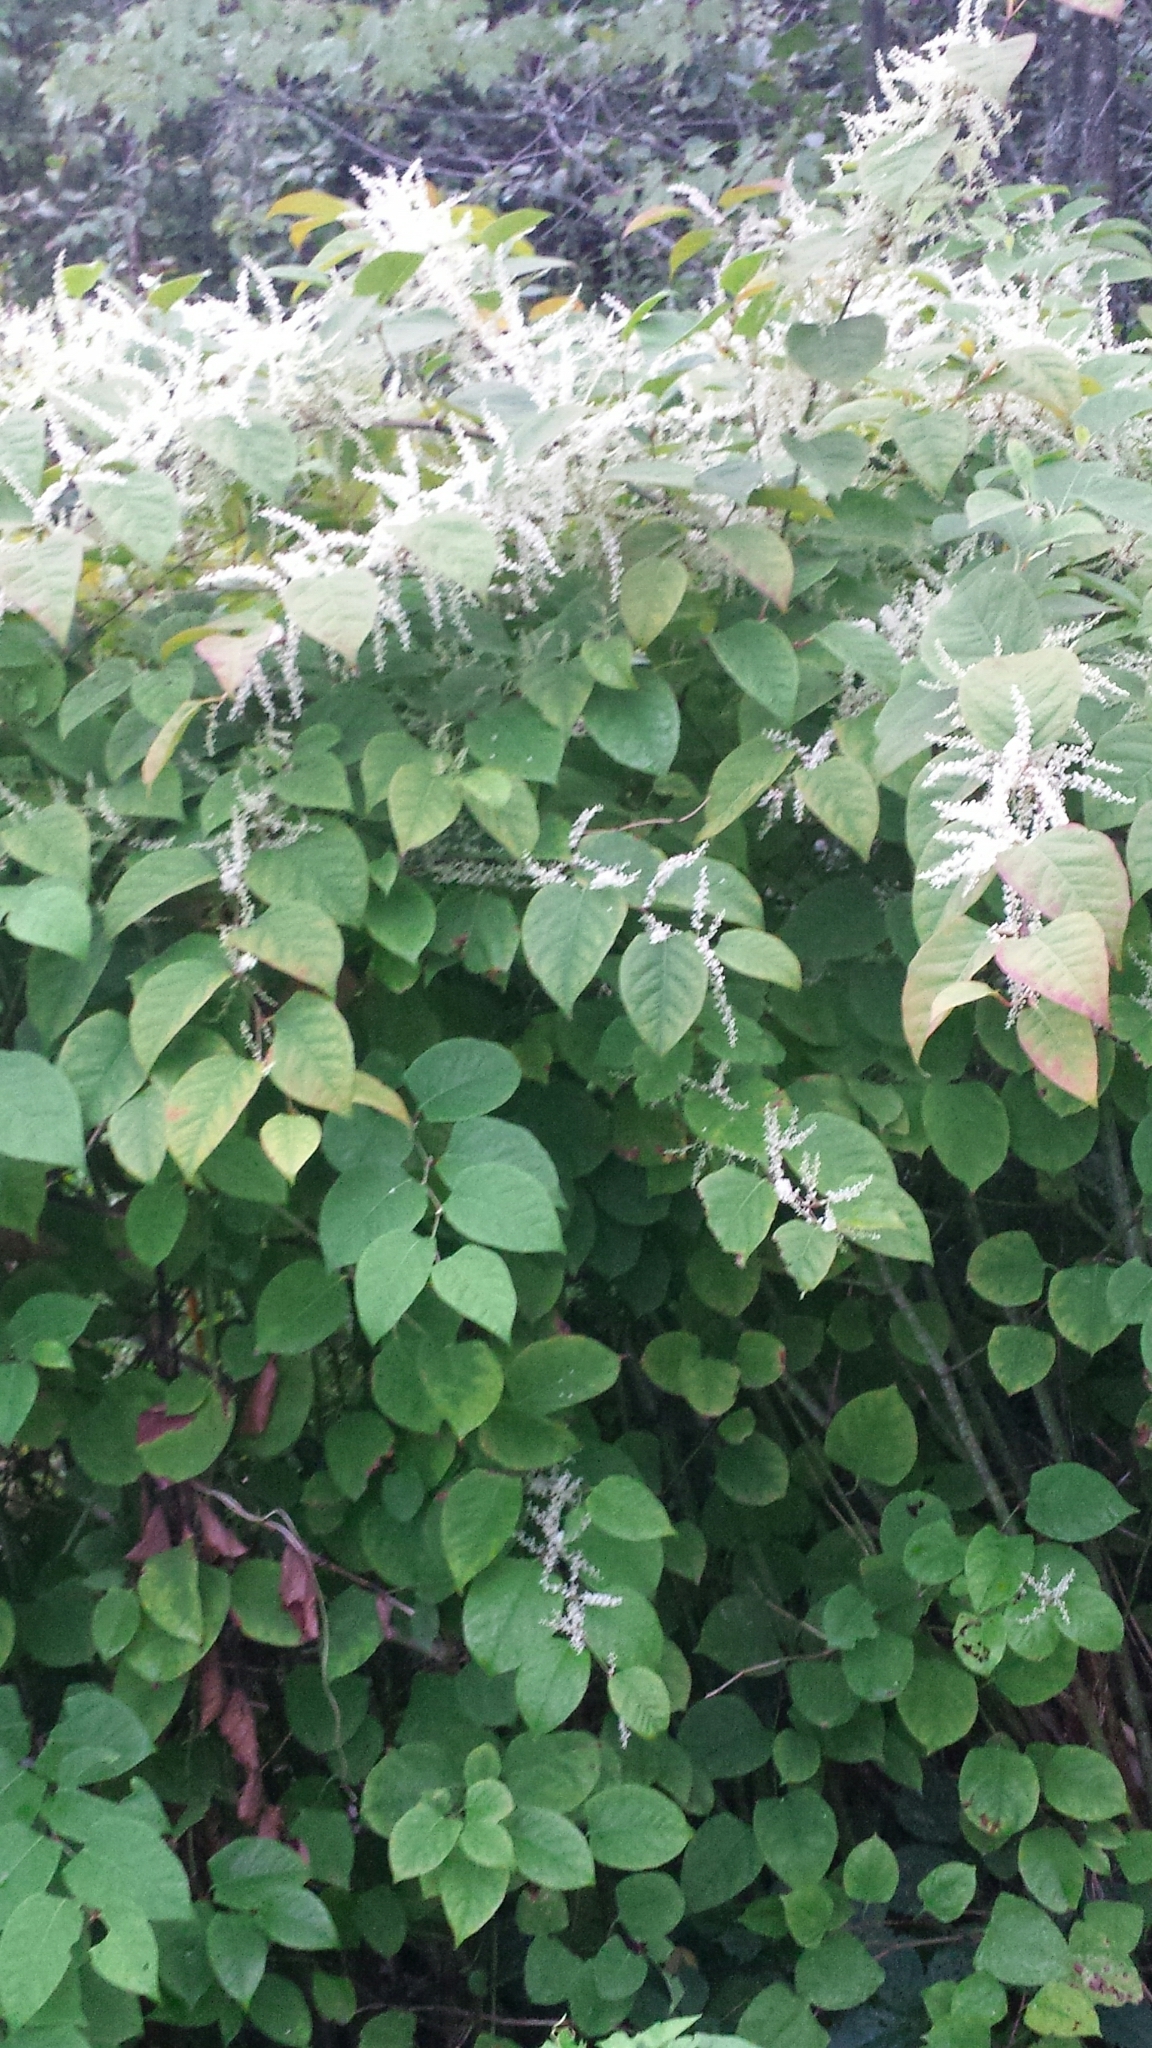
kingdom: Plantae
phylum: Tracheophyta
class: Magnoliopsida
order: Caryophyllales
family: Polygonaceae
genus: Reynoutria
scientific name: Reynoutria japonica
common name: Japanese knotweed
